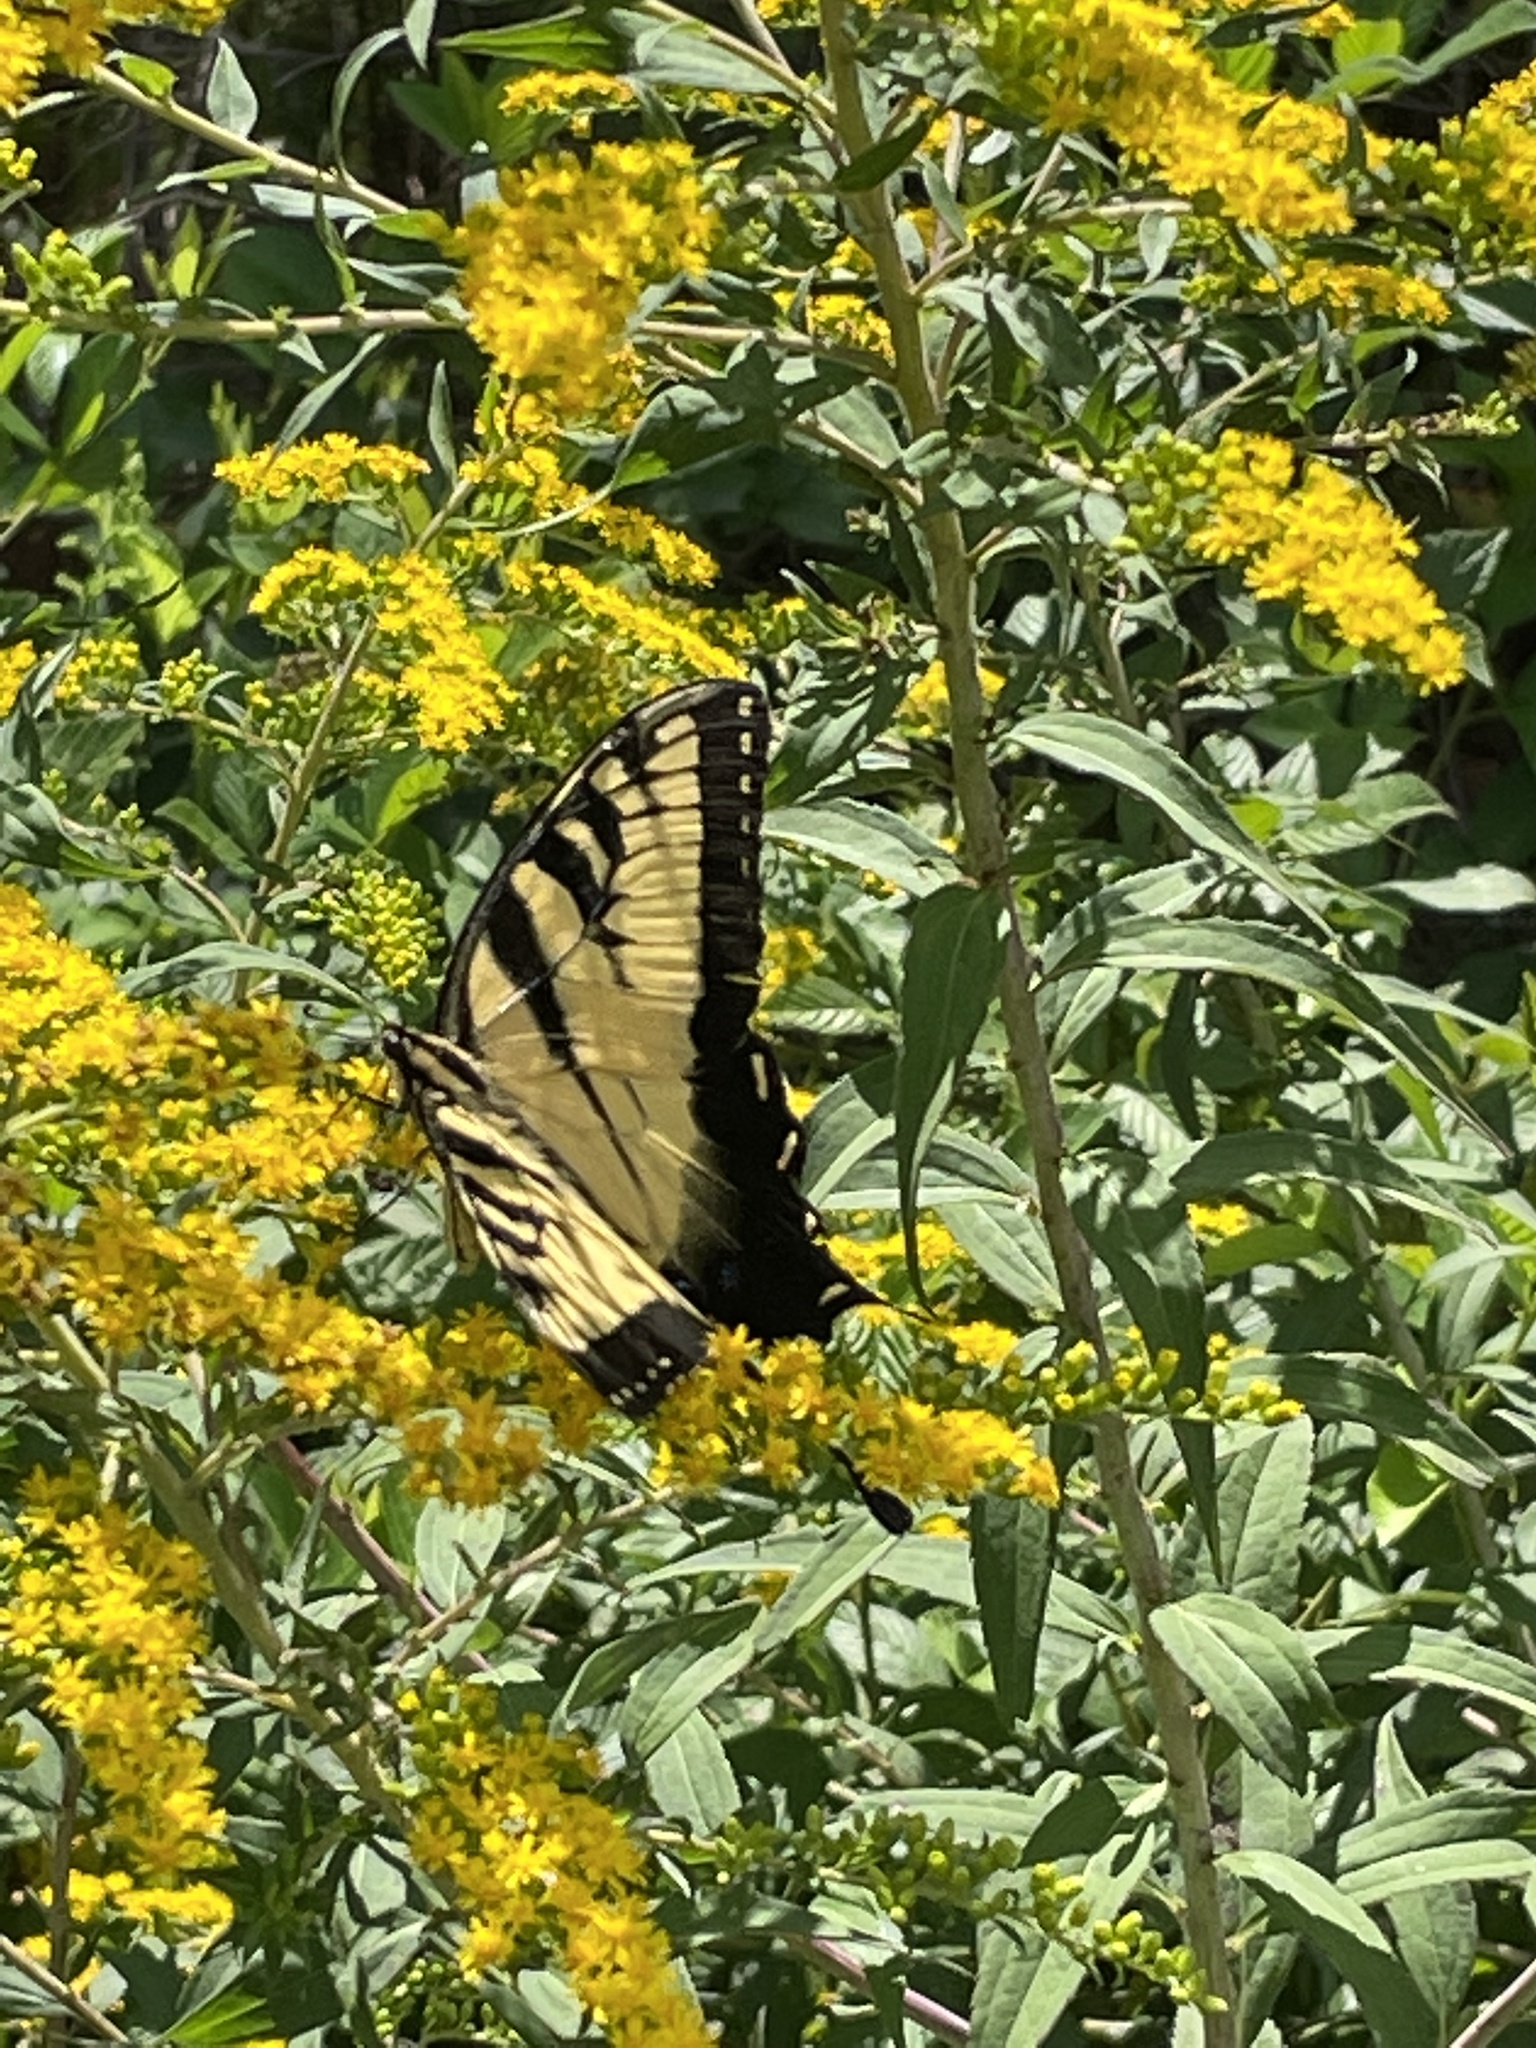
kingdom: Animalia
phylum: Arthropoda
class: Insecta
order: Lepidoptera
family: Papilionidae
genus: Papilio
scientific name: Papilio glaucus
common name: Tiger swallowtail
